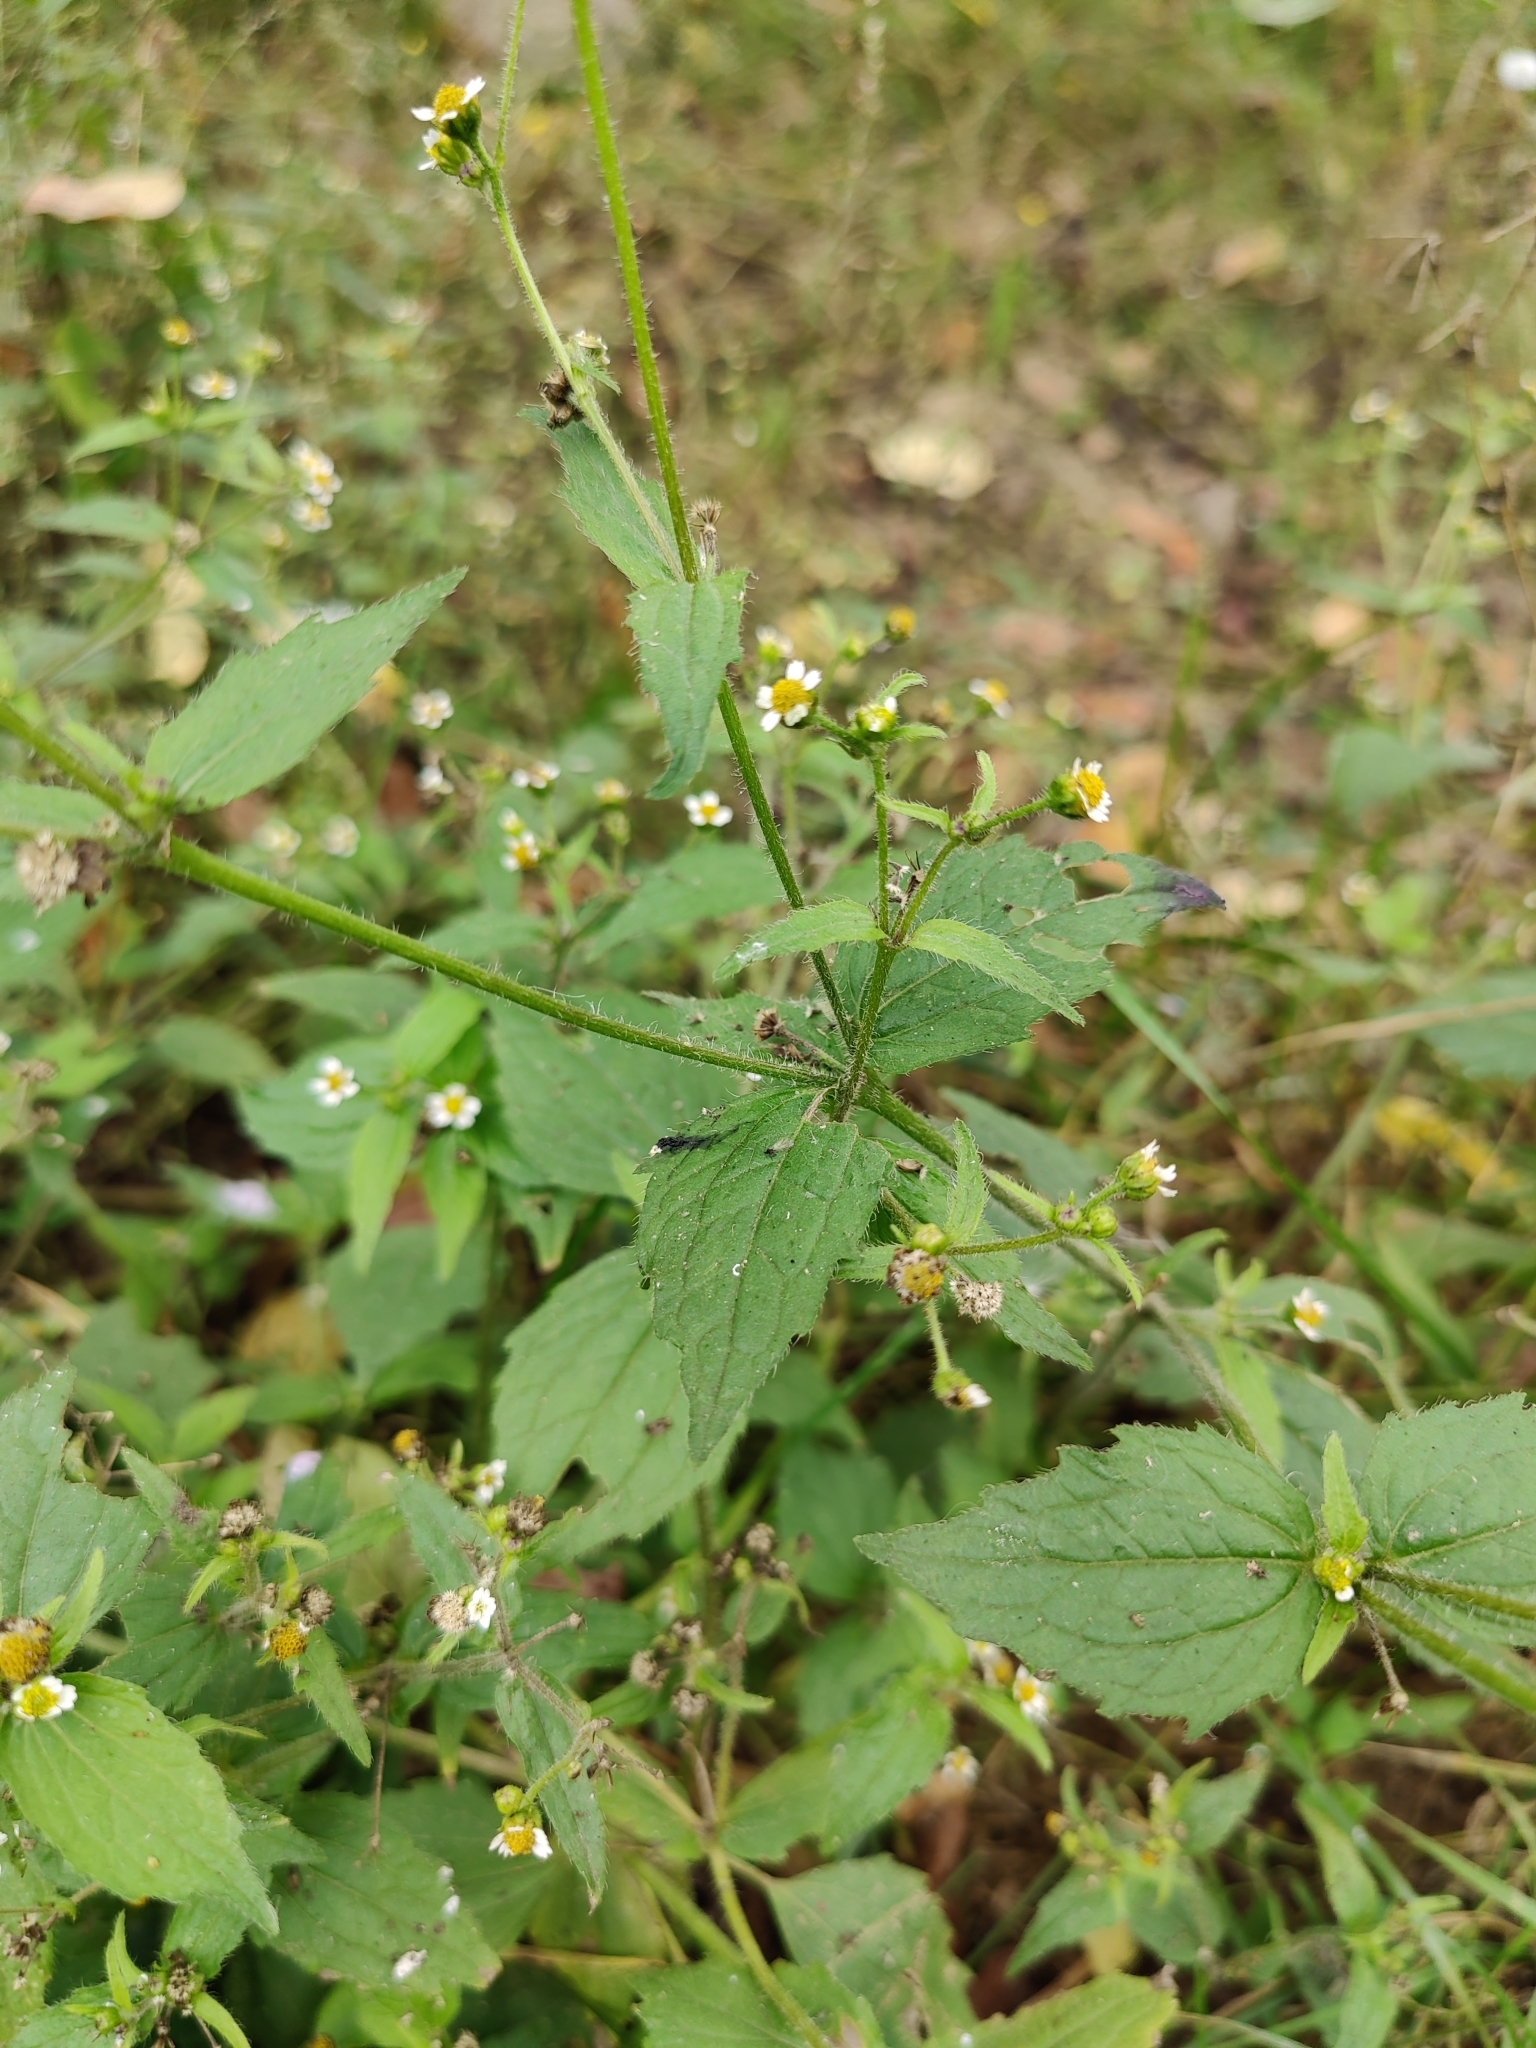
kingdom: Plantae
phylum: Tracheophyta
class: Magnoliopsida
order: Asterales
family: Asteraceae
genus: Galinsoga
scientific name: Galinsoga quadriradiata
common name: Shaggy soldier
